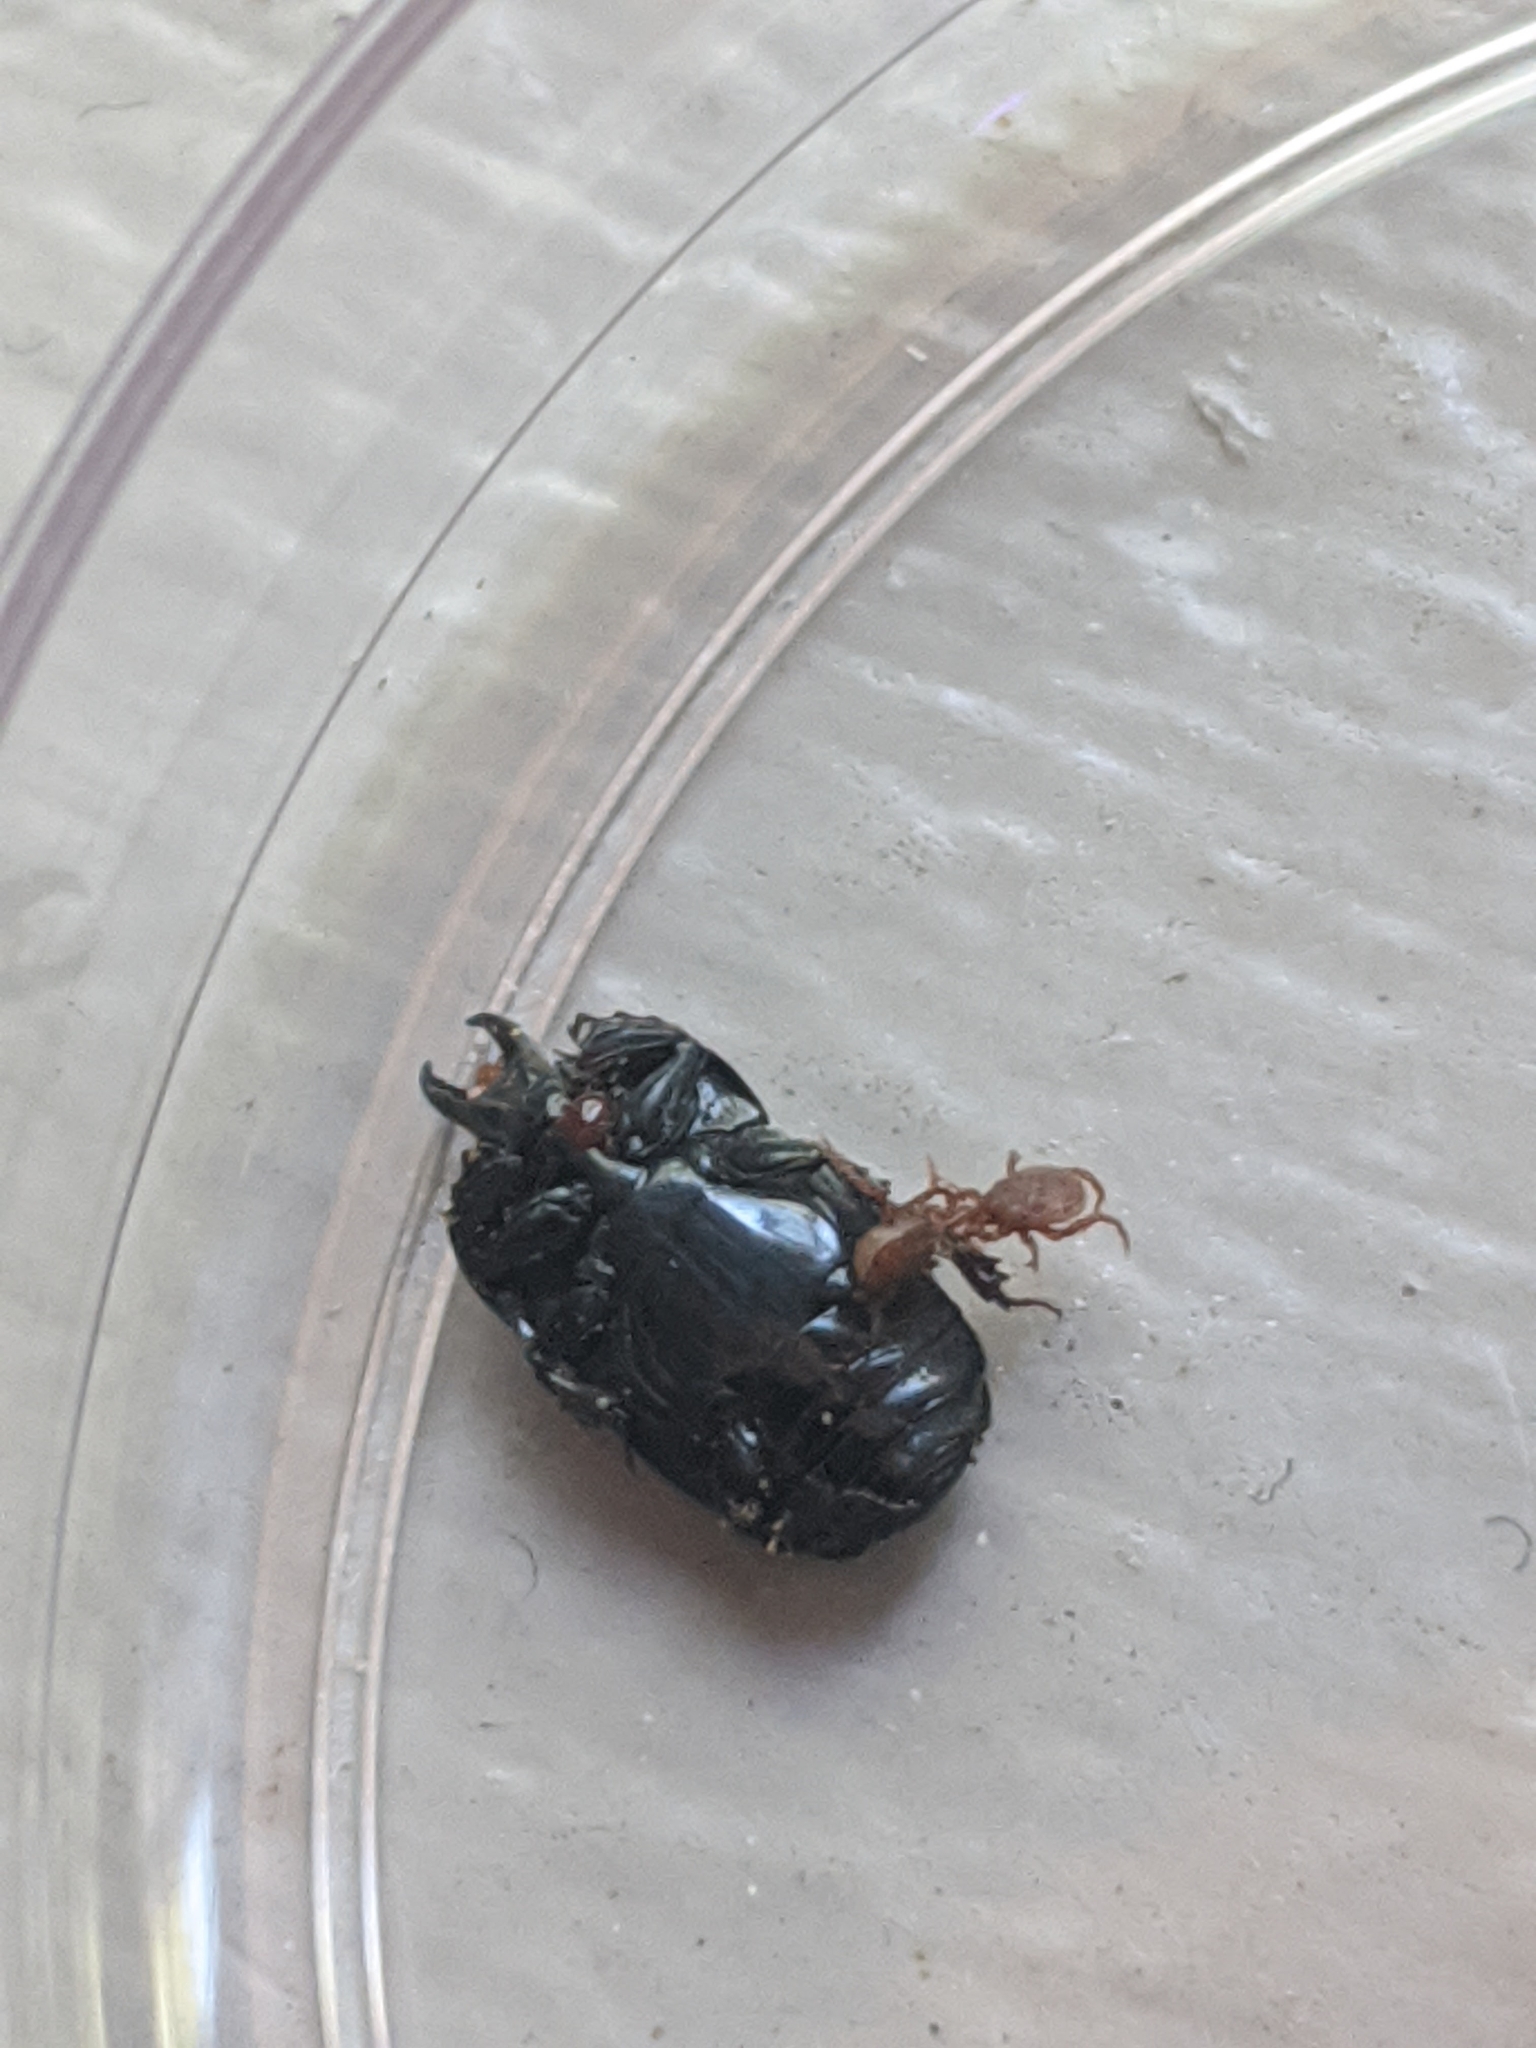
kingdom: Animalia
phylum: Arthropoda
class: Insecta
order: Coleoptera
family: Histeridae
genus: Hololepta
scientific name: Hololepta lucida
